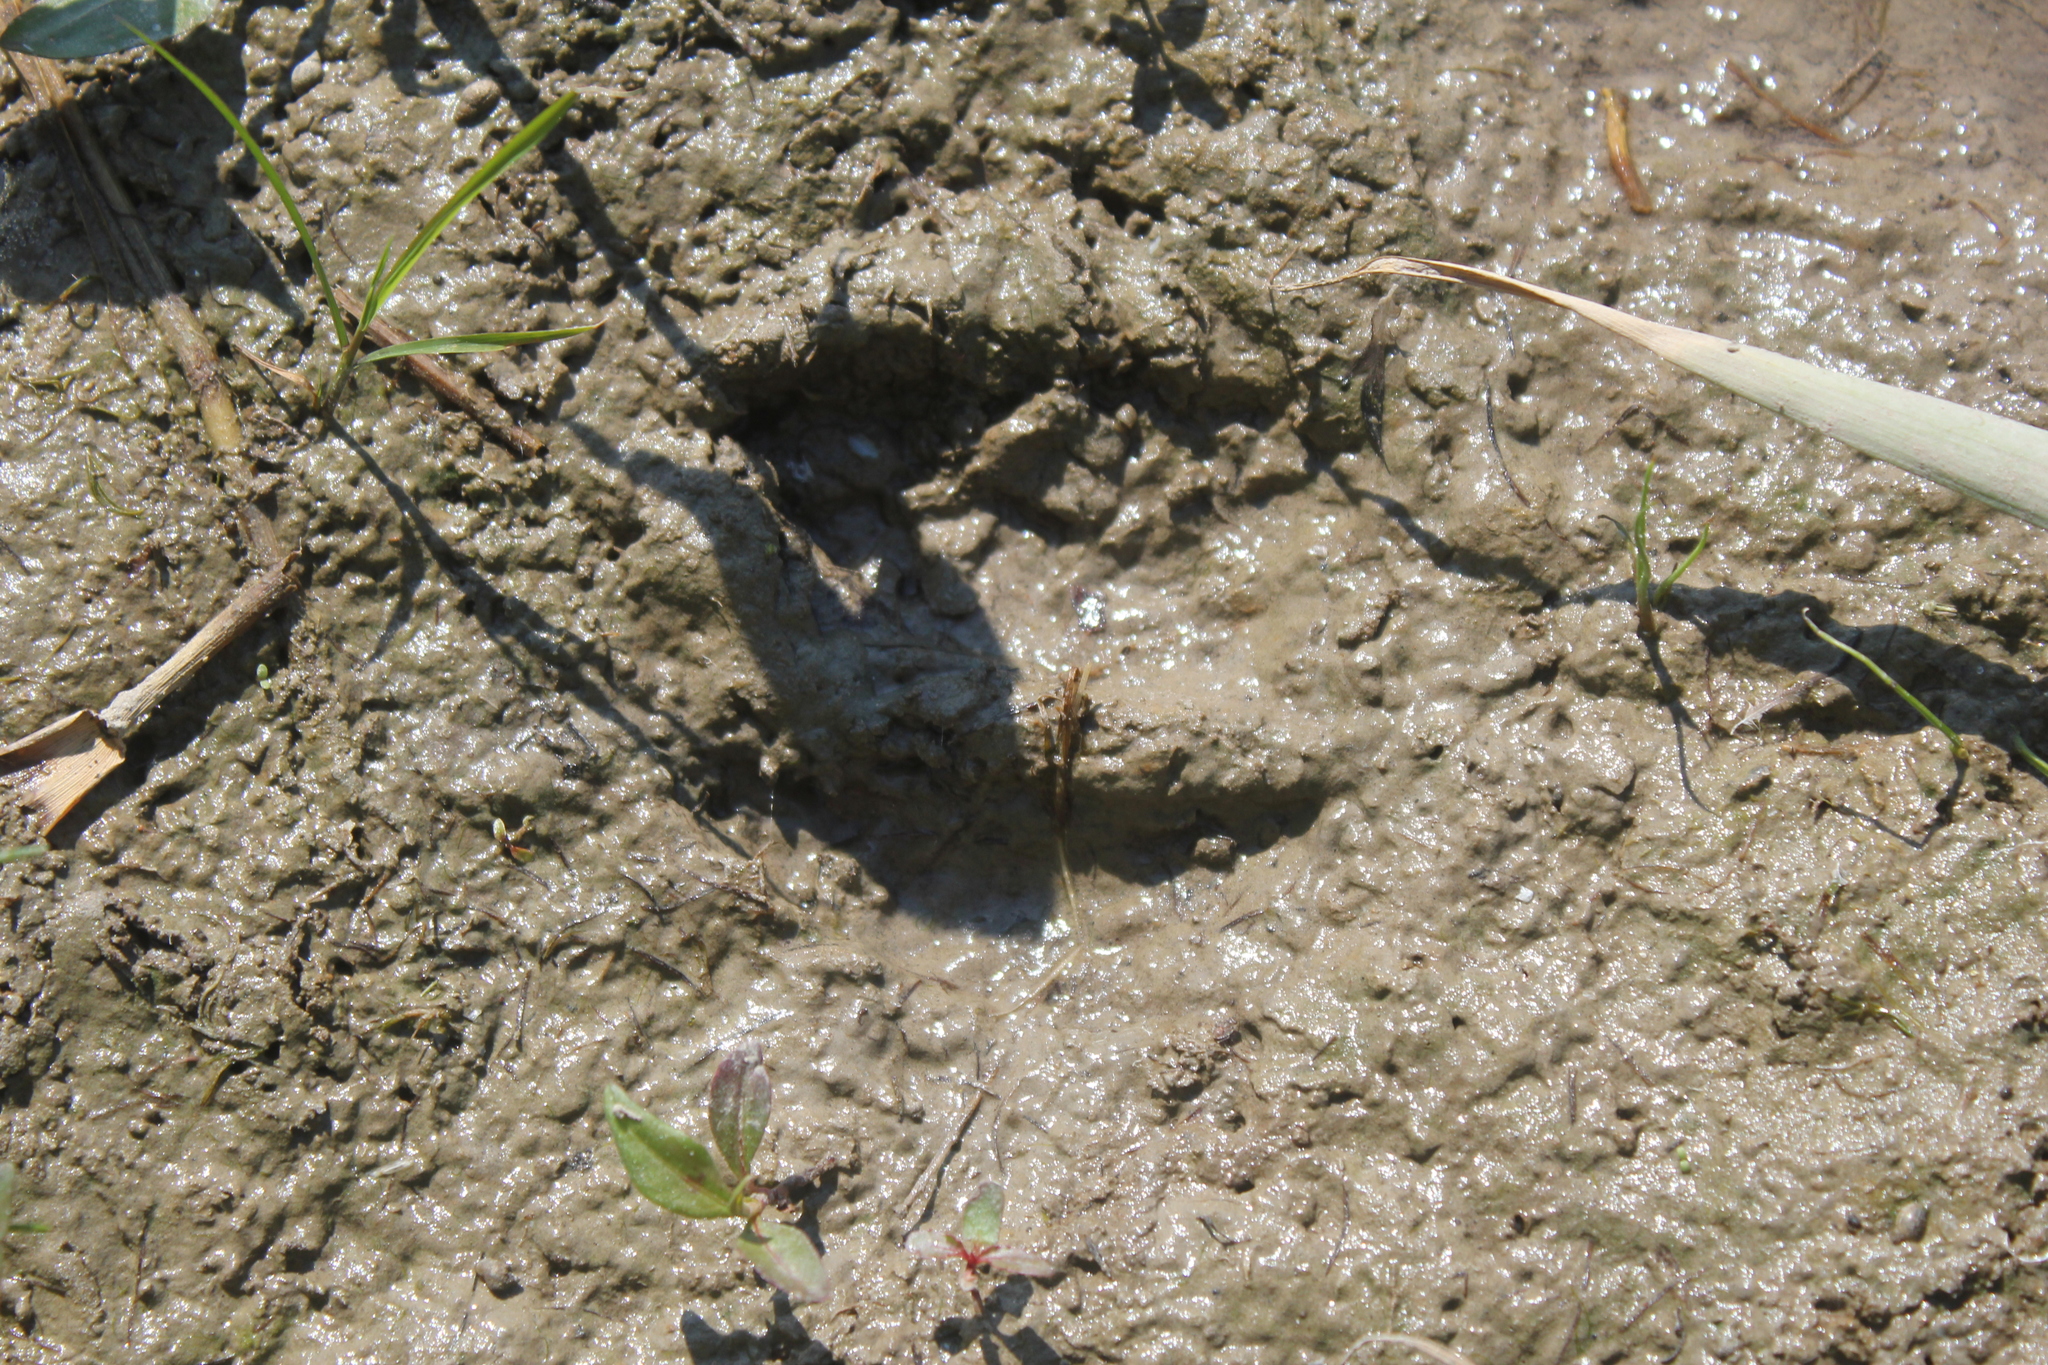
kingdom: Animalia
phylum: Chordata
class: Mammalia
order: Artiodactyla
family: Cervidae
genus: Odocoileus
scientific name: Odocoileus virginianus
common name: White-tailed deer
